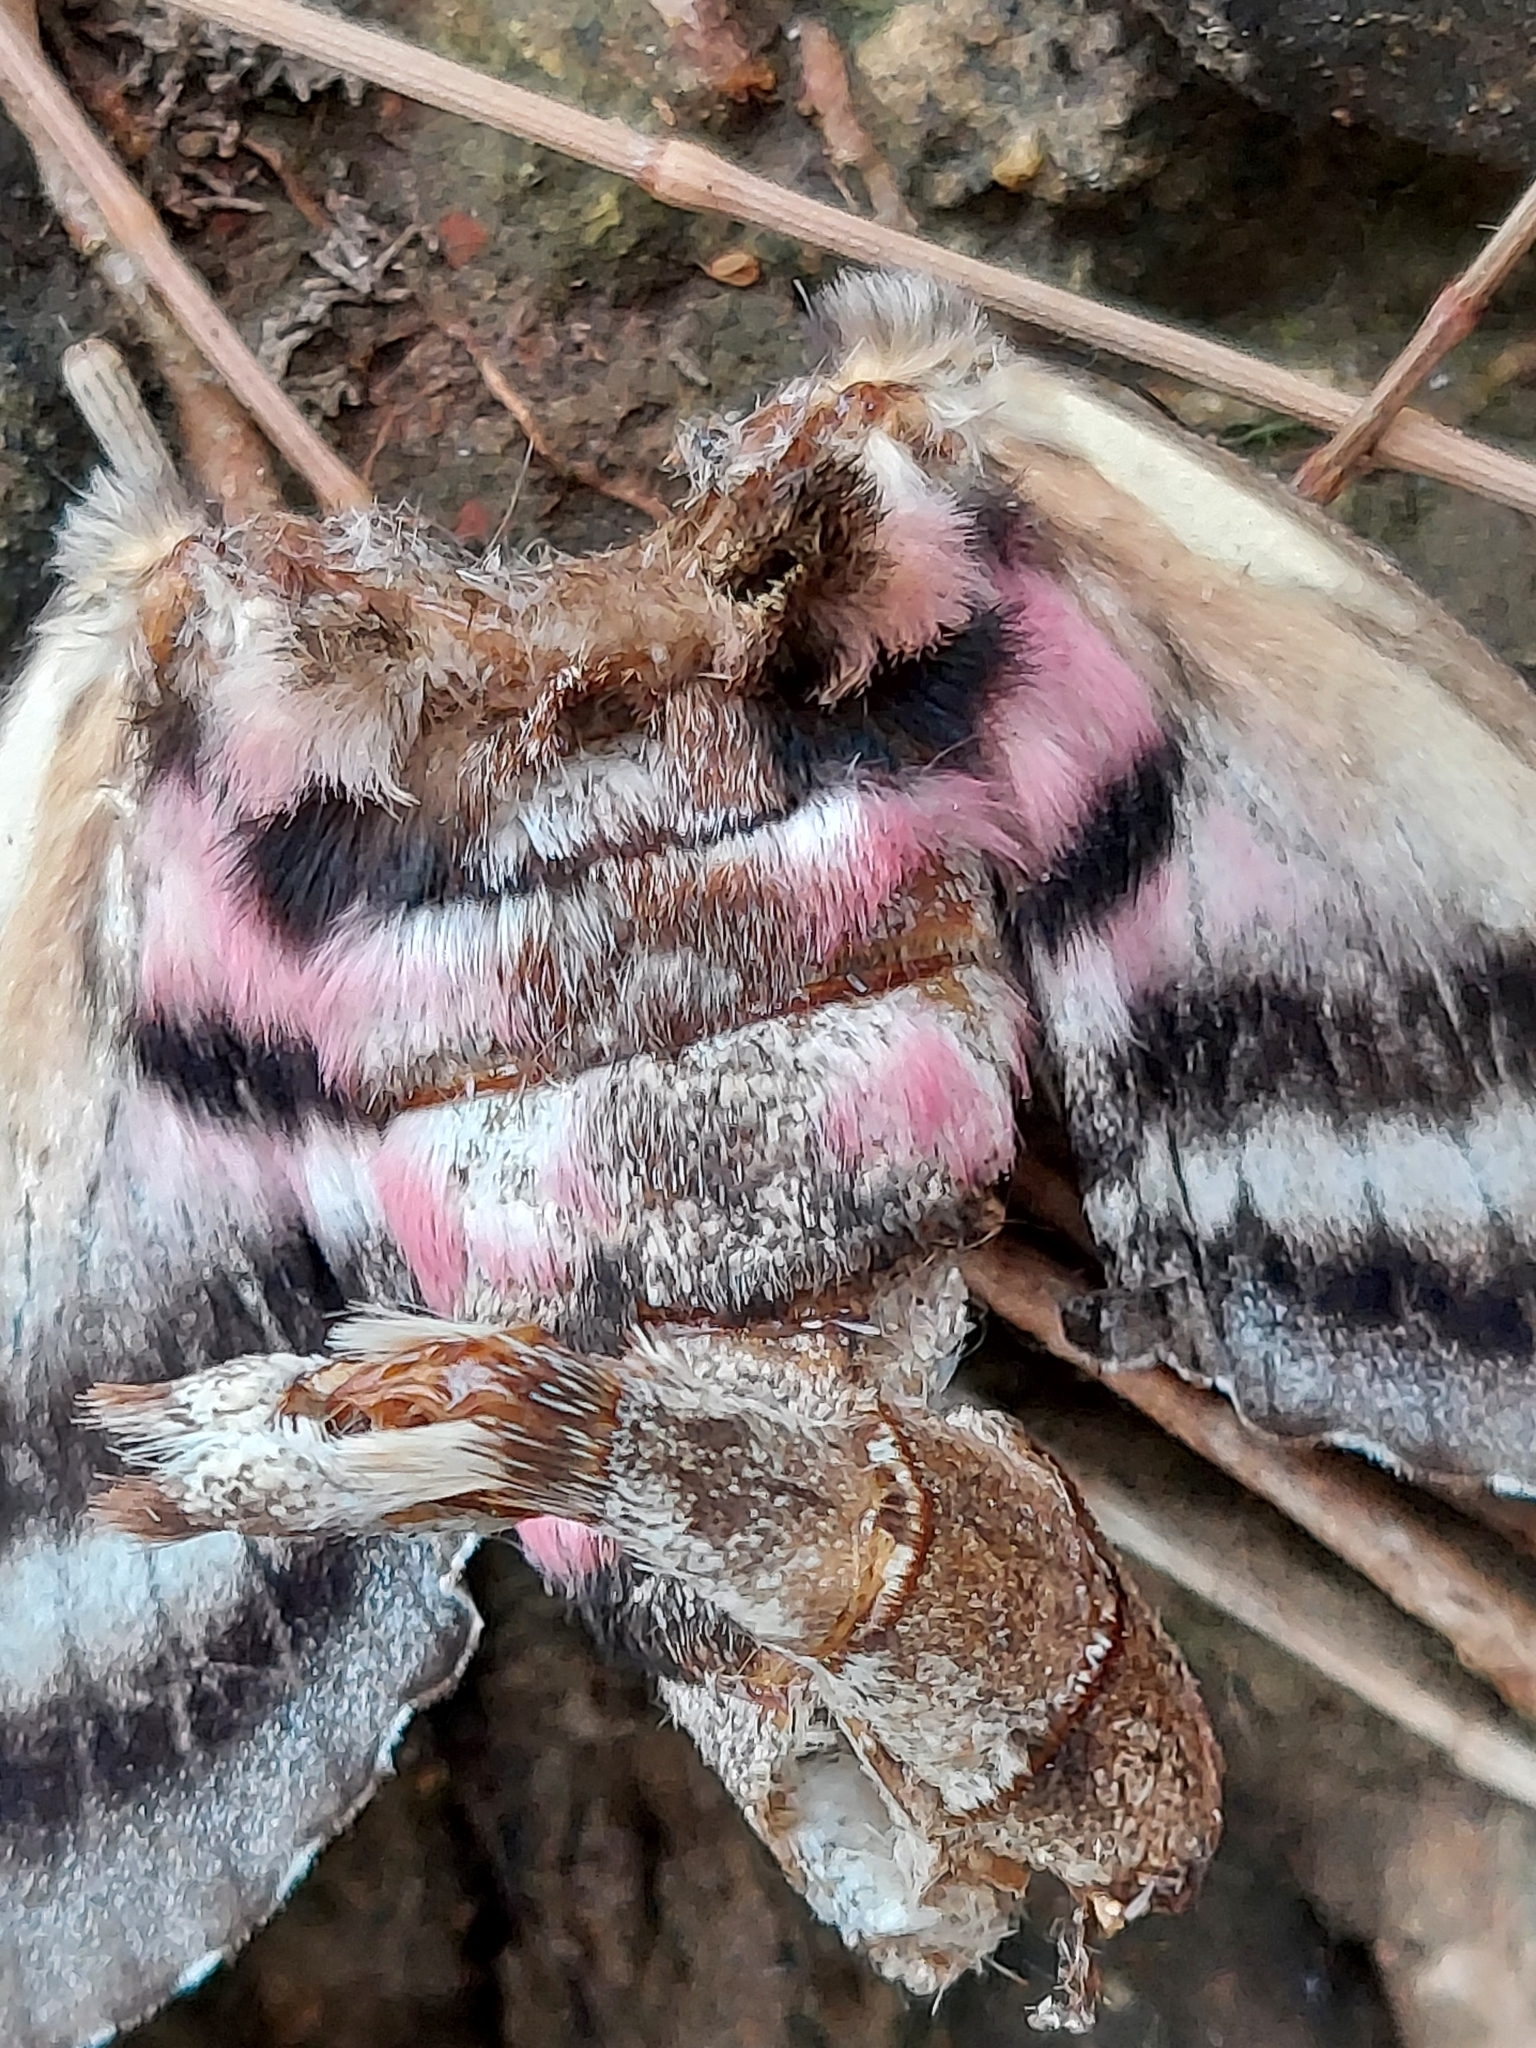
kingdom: Animalia
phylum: Arthropoda
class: Insecta
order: Lepidoptera
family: Sphingidae
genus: Agrius
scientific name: Agrius cingulata
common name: Pink-spotted hawkmoth
